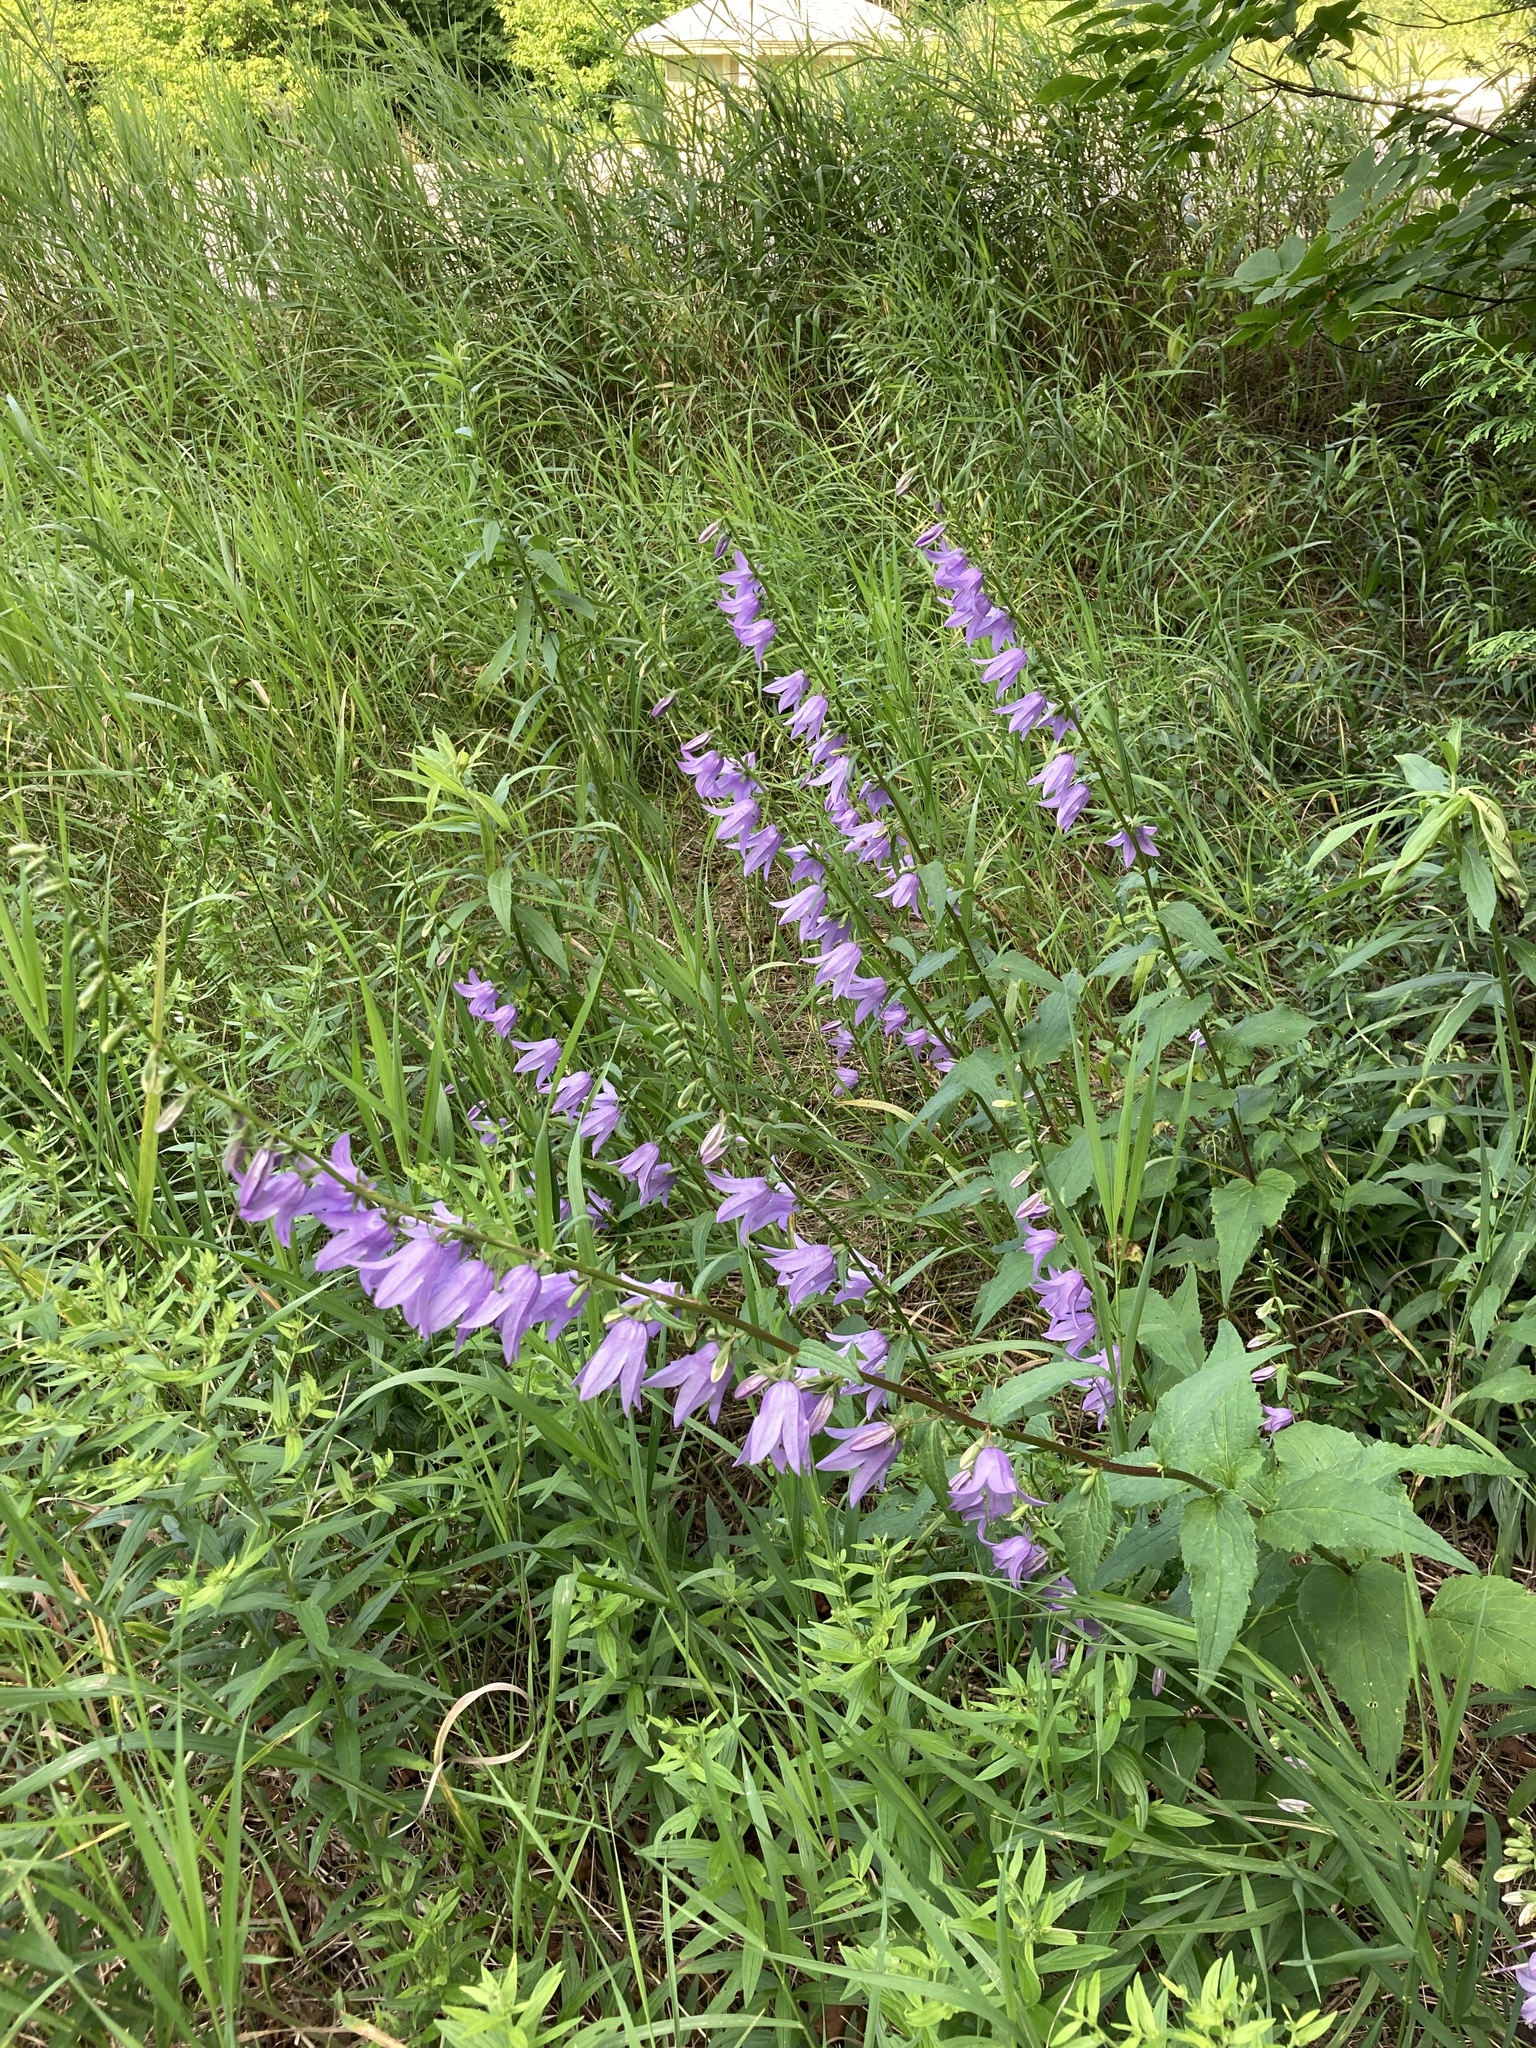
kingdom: Plantae
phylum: Tracheophyta
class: Magnoliopsida
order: Asterales
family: Campanulaceae
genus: Campanula
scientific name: Campanula rapunculoides
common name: Creeping bellflower
